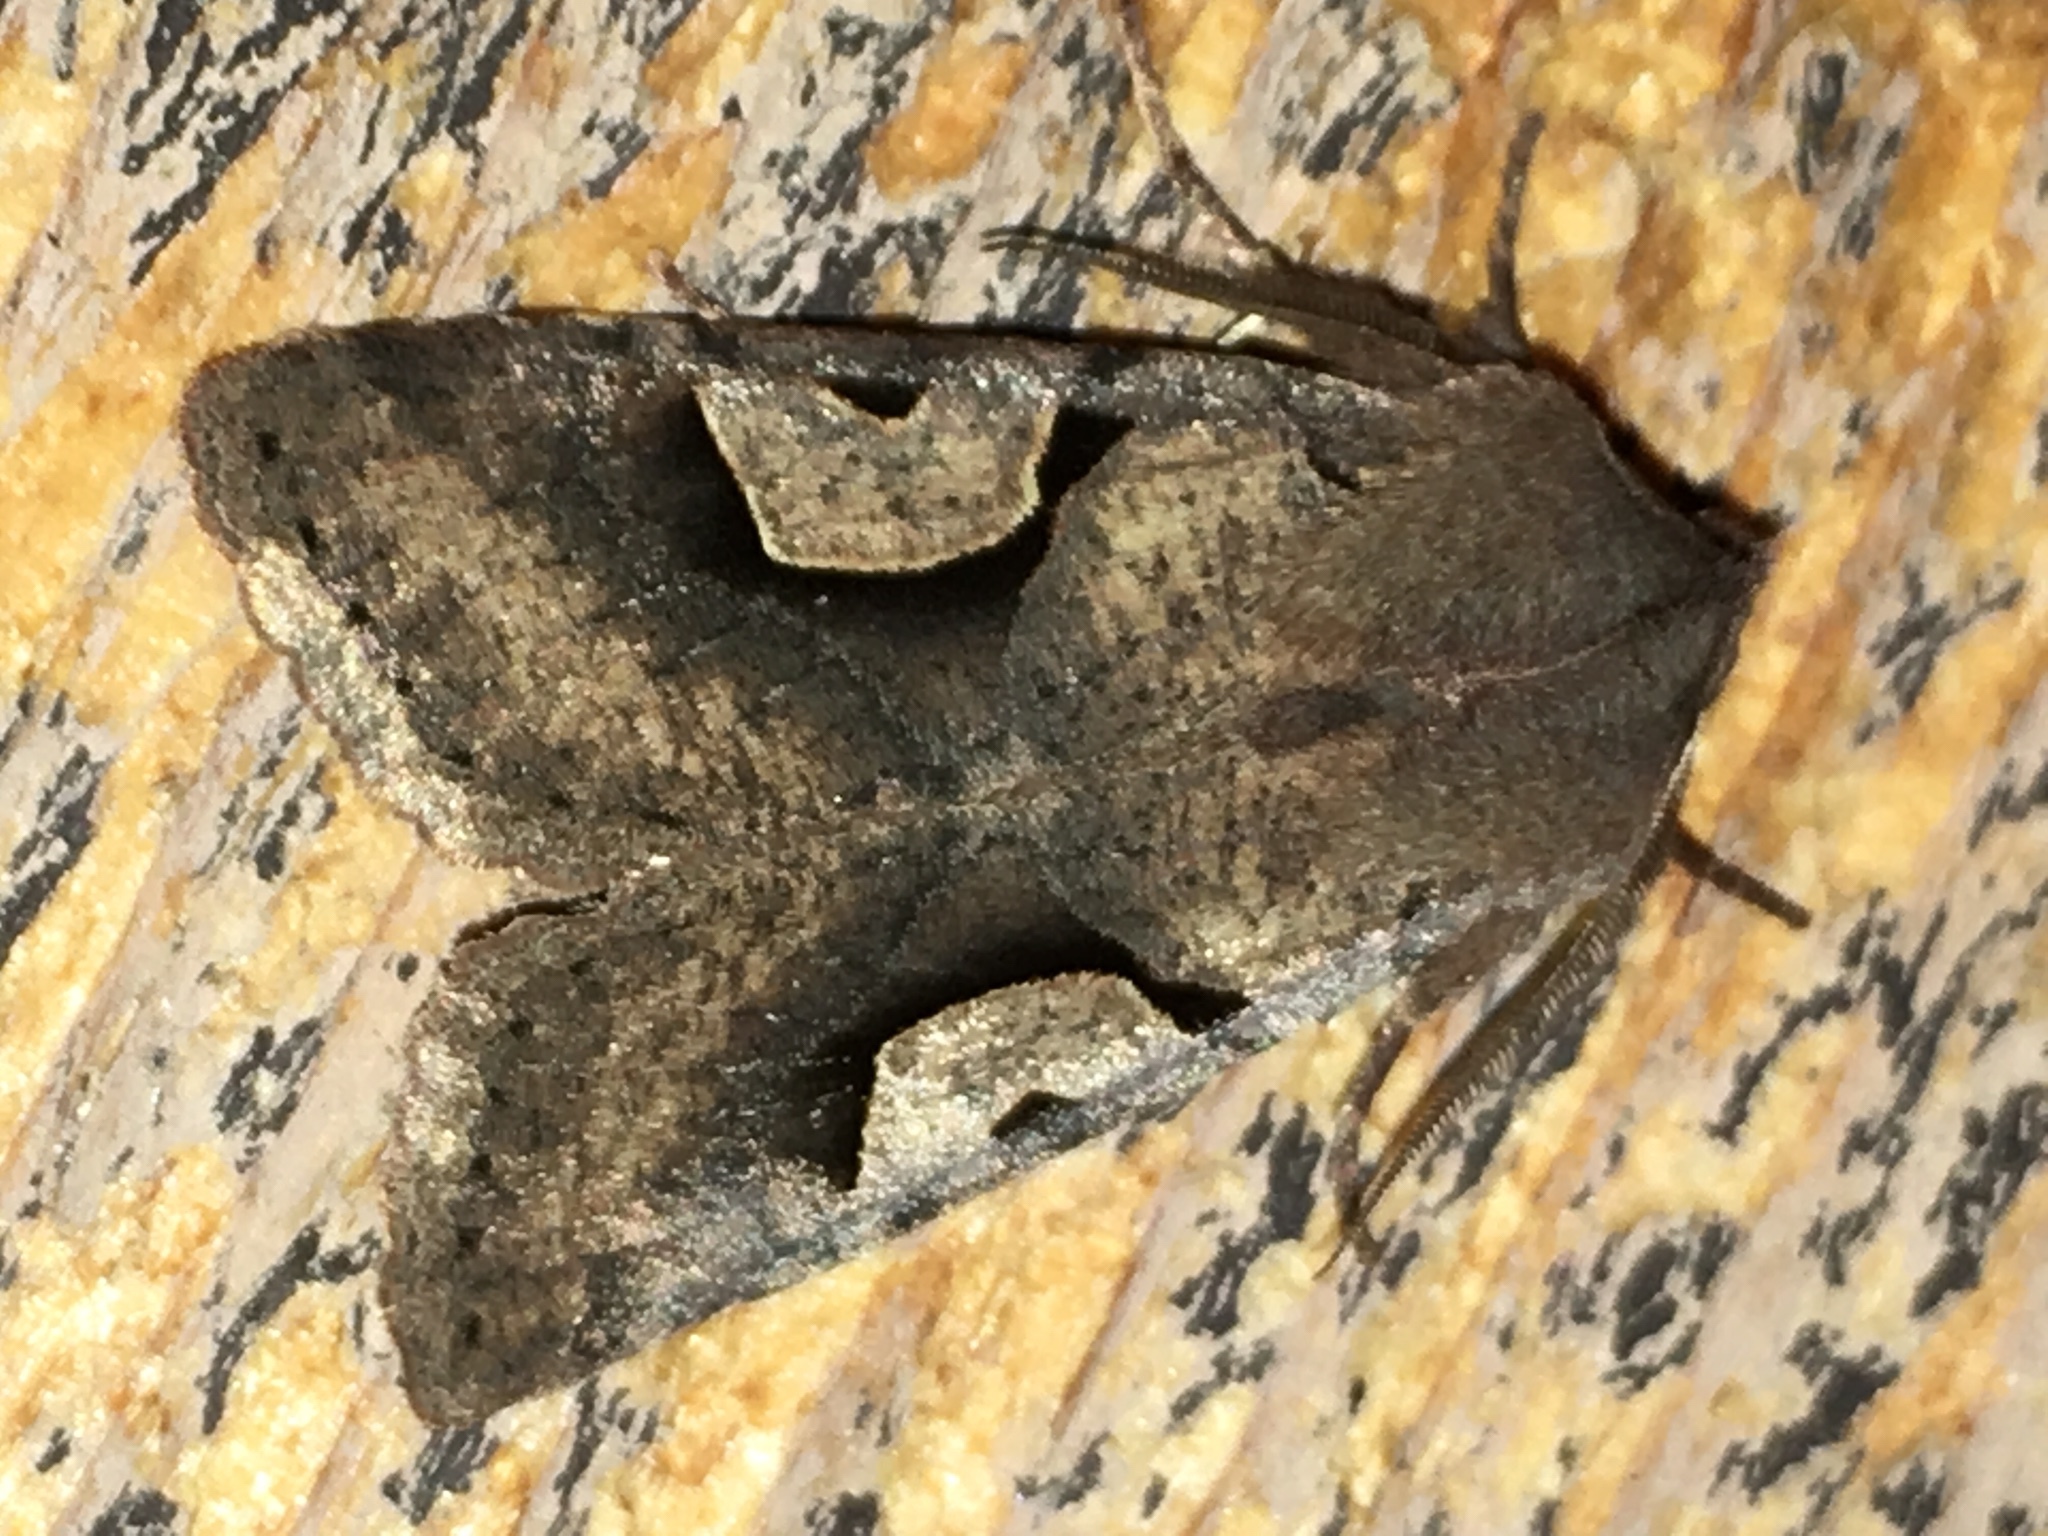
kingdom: Animalia
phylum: Arthropoda
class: Insecta
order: Lepidoptera
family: Noctuidae
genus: Acerra
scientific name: Acerra normalis
